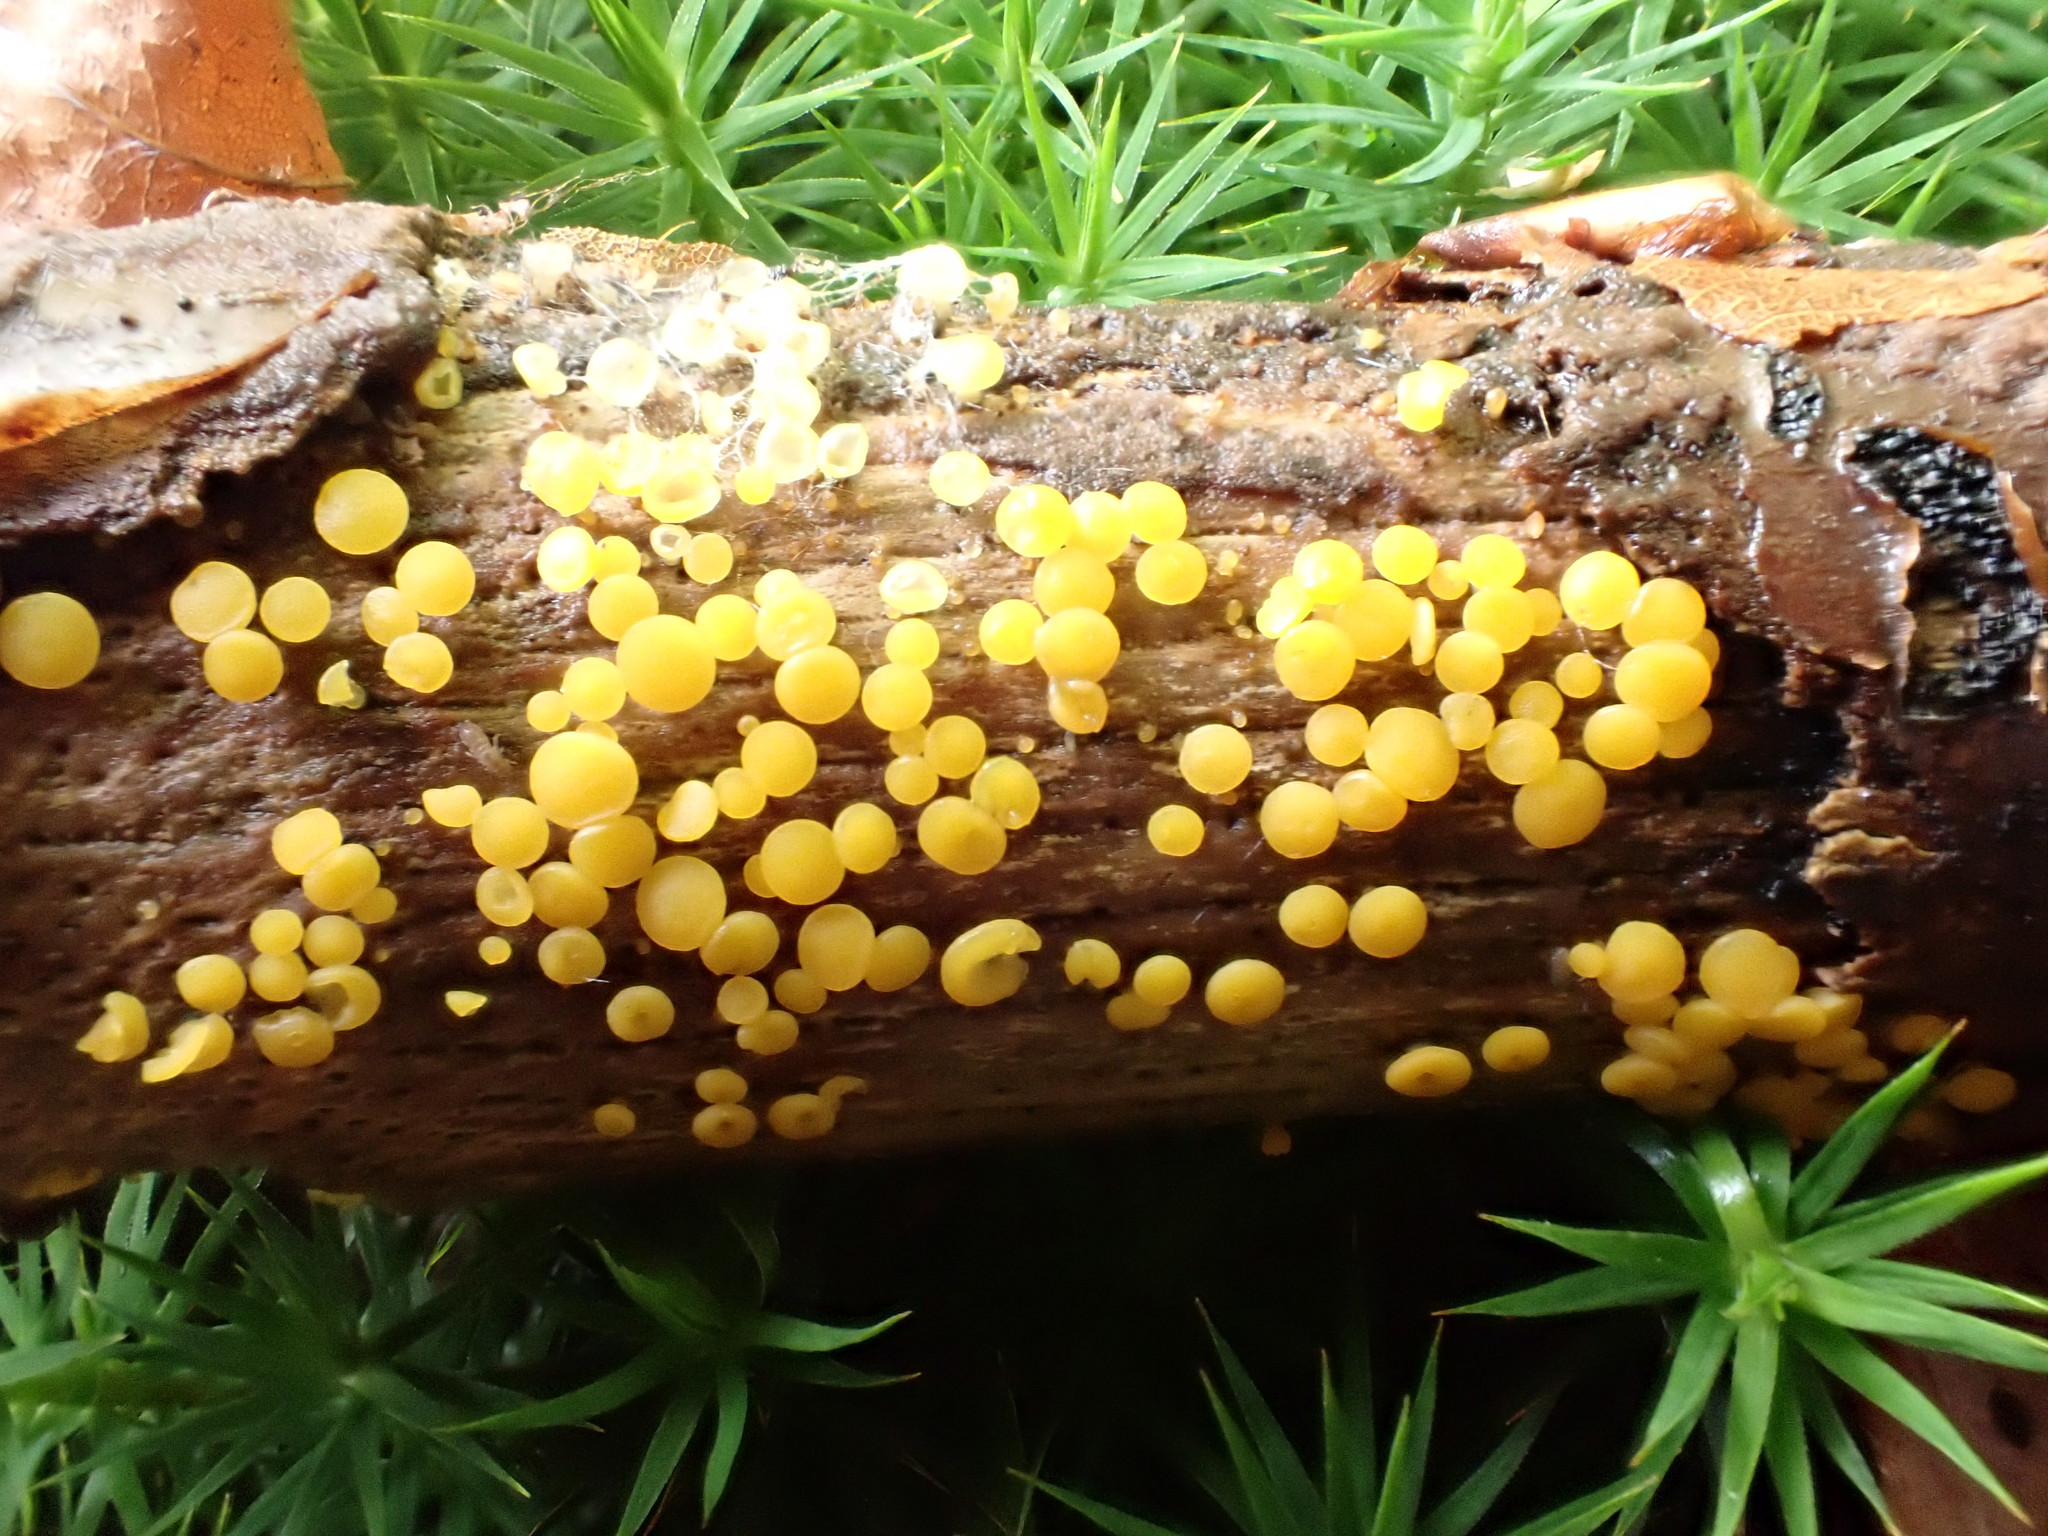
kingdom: Fungi
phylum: Ascomycota
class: Leotiomycetes
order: Helotiales
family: Pezizellaceae
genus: Calycina
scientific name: Calycina citrina
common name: Yellow fairy cups
